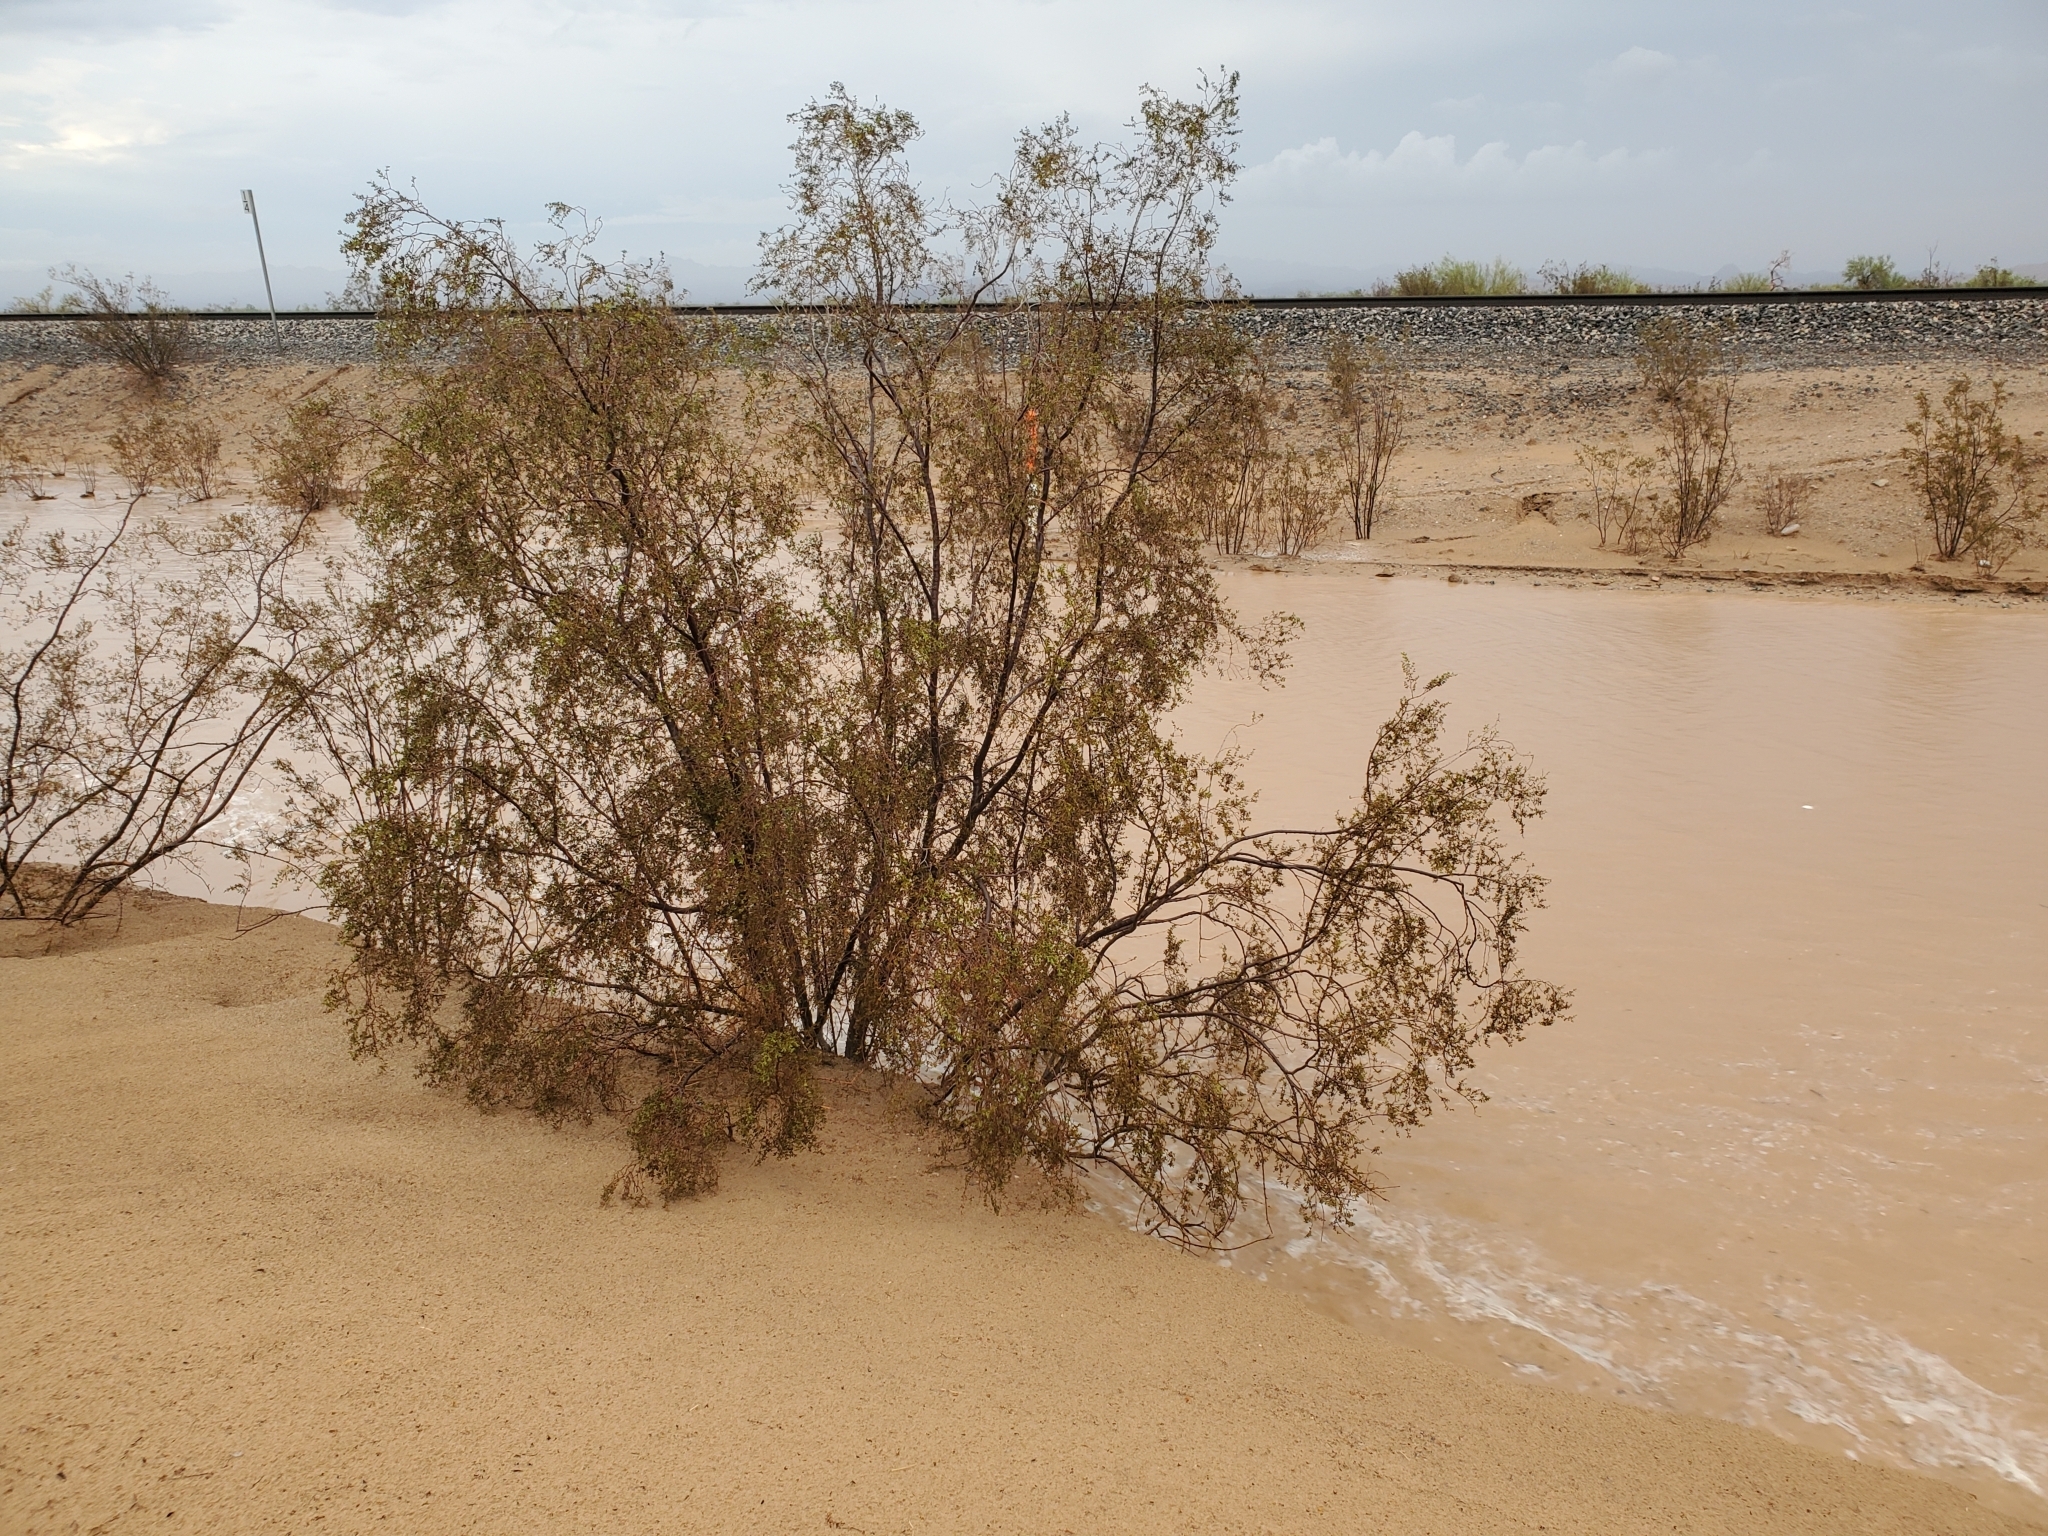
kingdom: Plantae
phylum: Tracheophyta
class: Magnoliopsida
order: Zygophyllales
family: Zygophyllaceae
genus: Larrea
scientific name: Larrea tridentata
